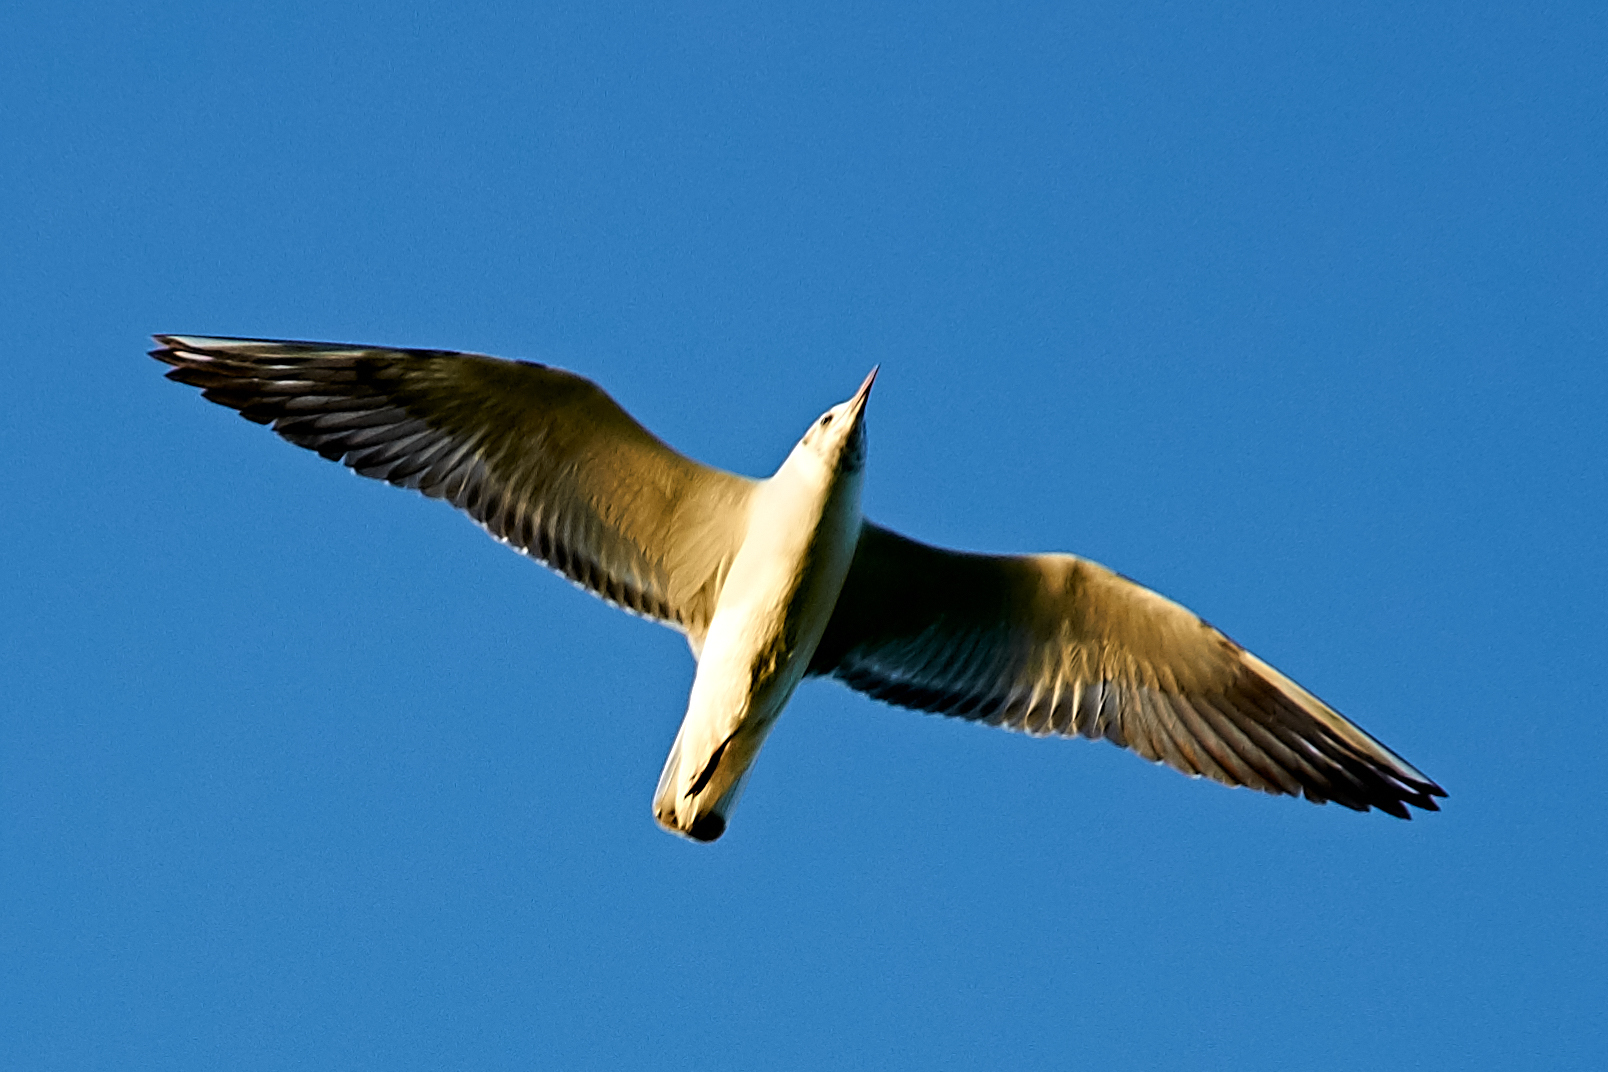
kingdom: Animalia
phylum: Chordata
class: Aves
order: Charadriiformes
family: Laridae
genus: Chroicocephalus
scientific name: Chroicocephalus ridibundus
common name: Black-headed gull
